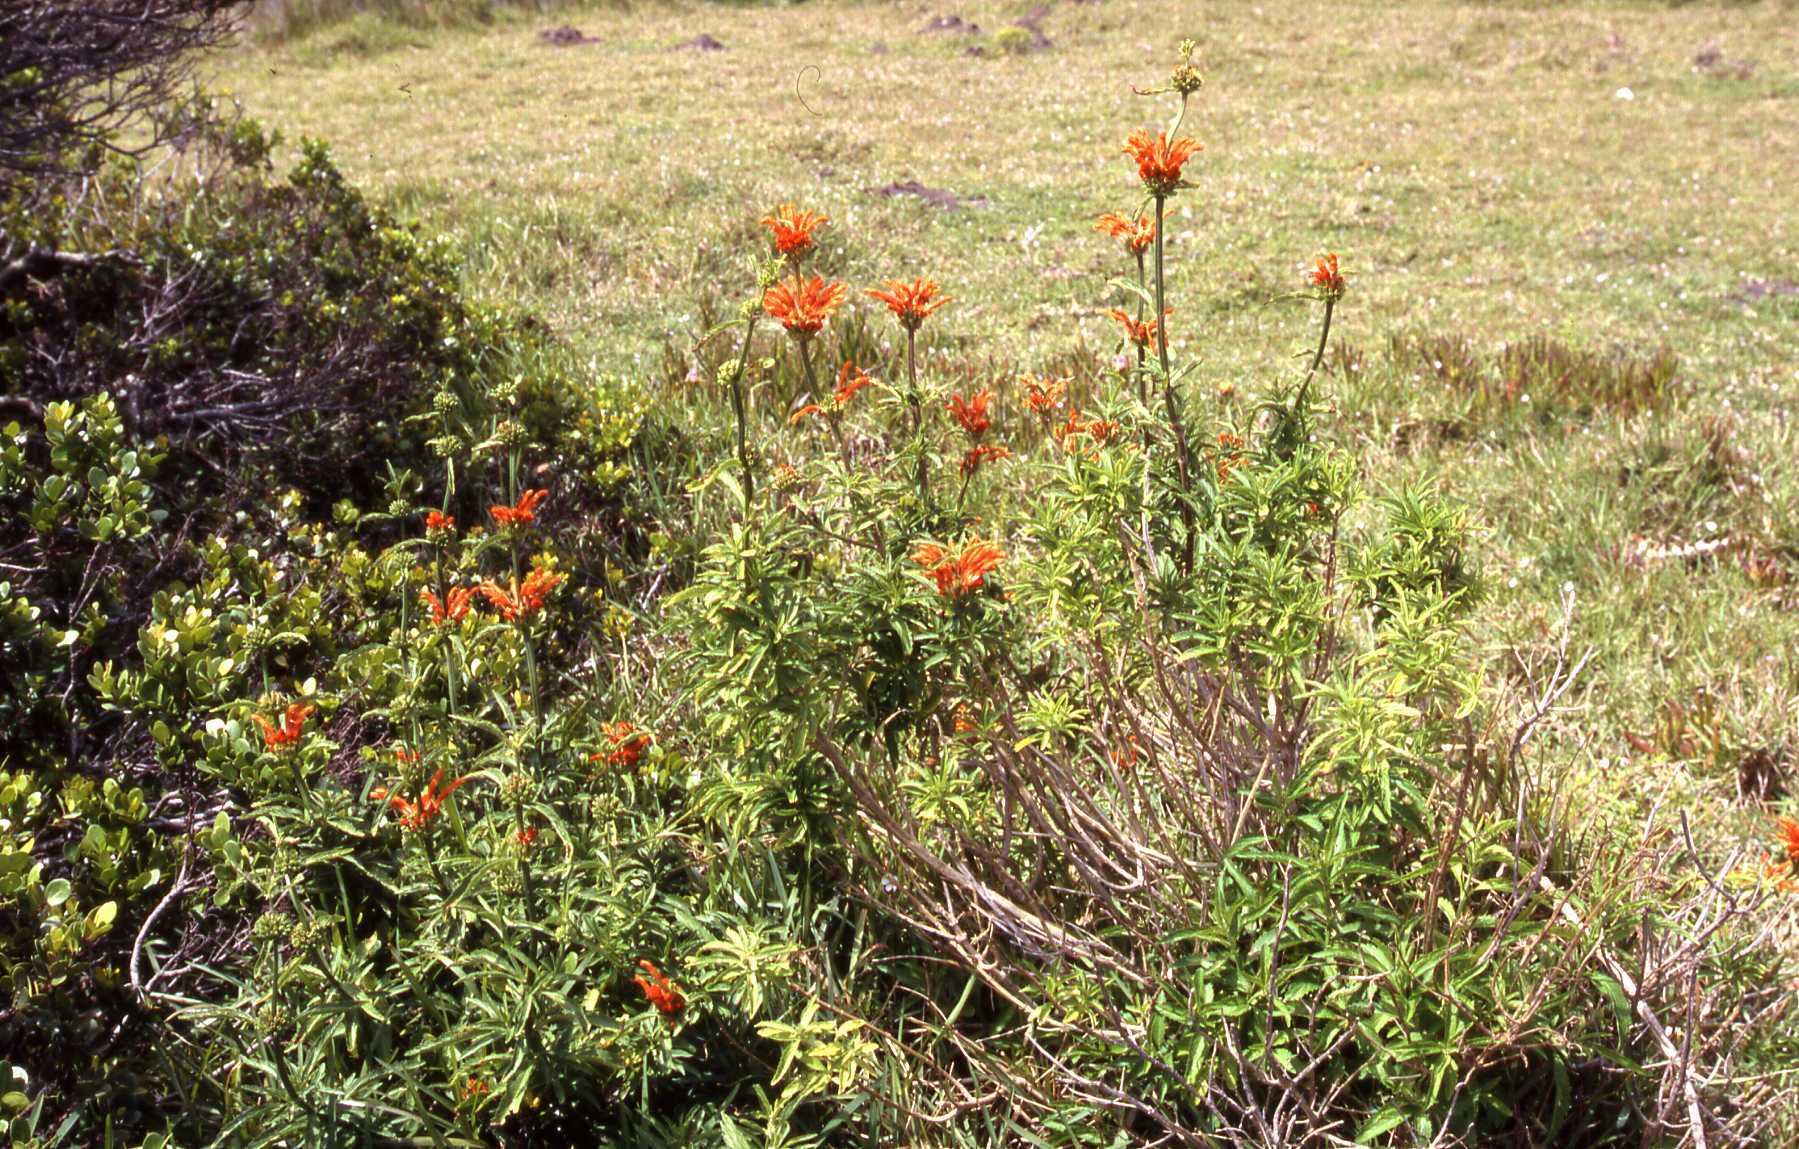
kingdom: Plantae
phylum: Tracheophyta
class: Magnoliopsida
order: Lamiales
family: Lamiaceae
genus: Leonotis
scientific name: Leonotis leonurus
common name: Lion's ear
